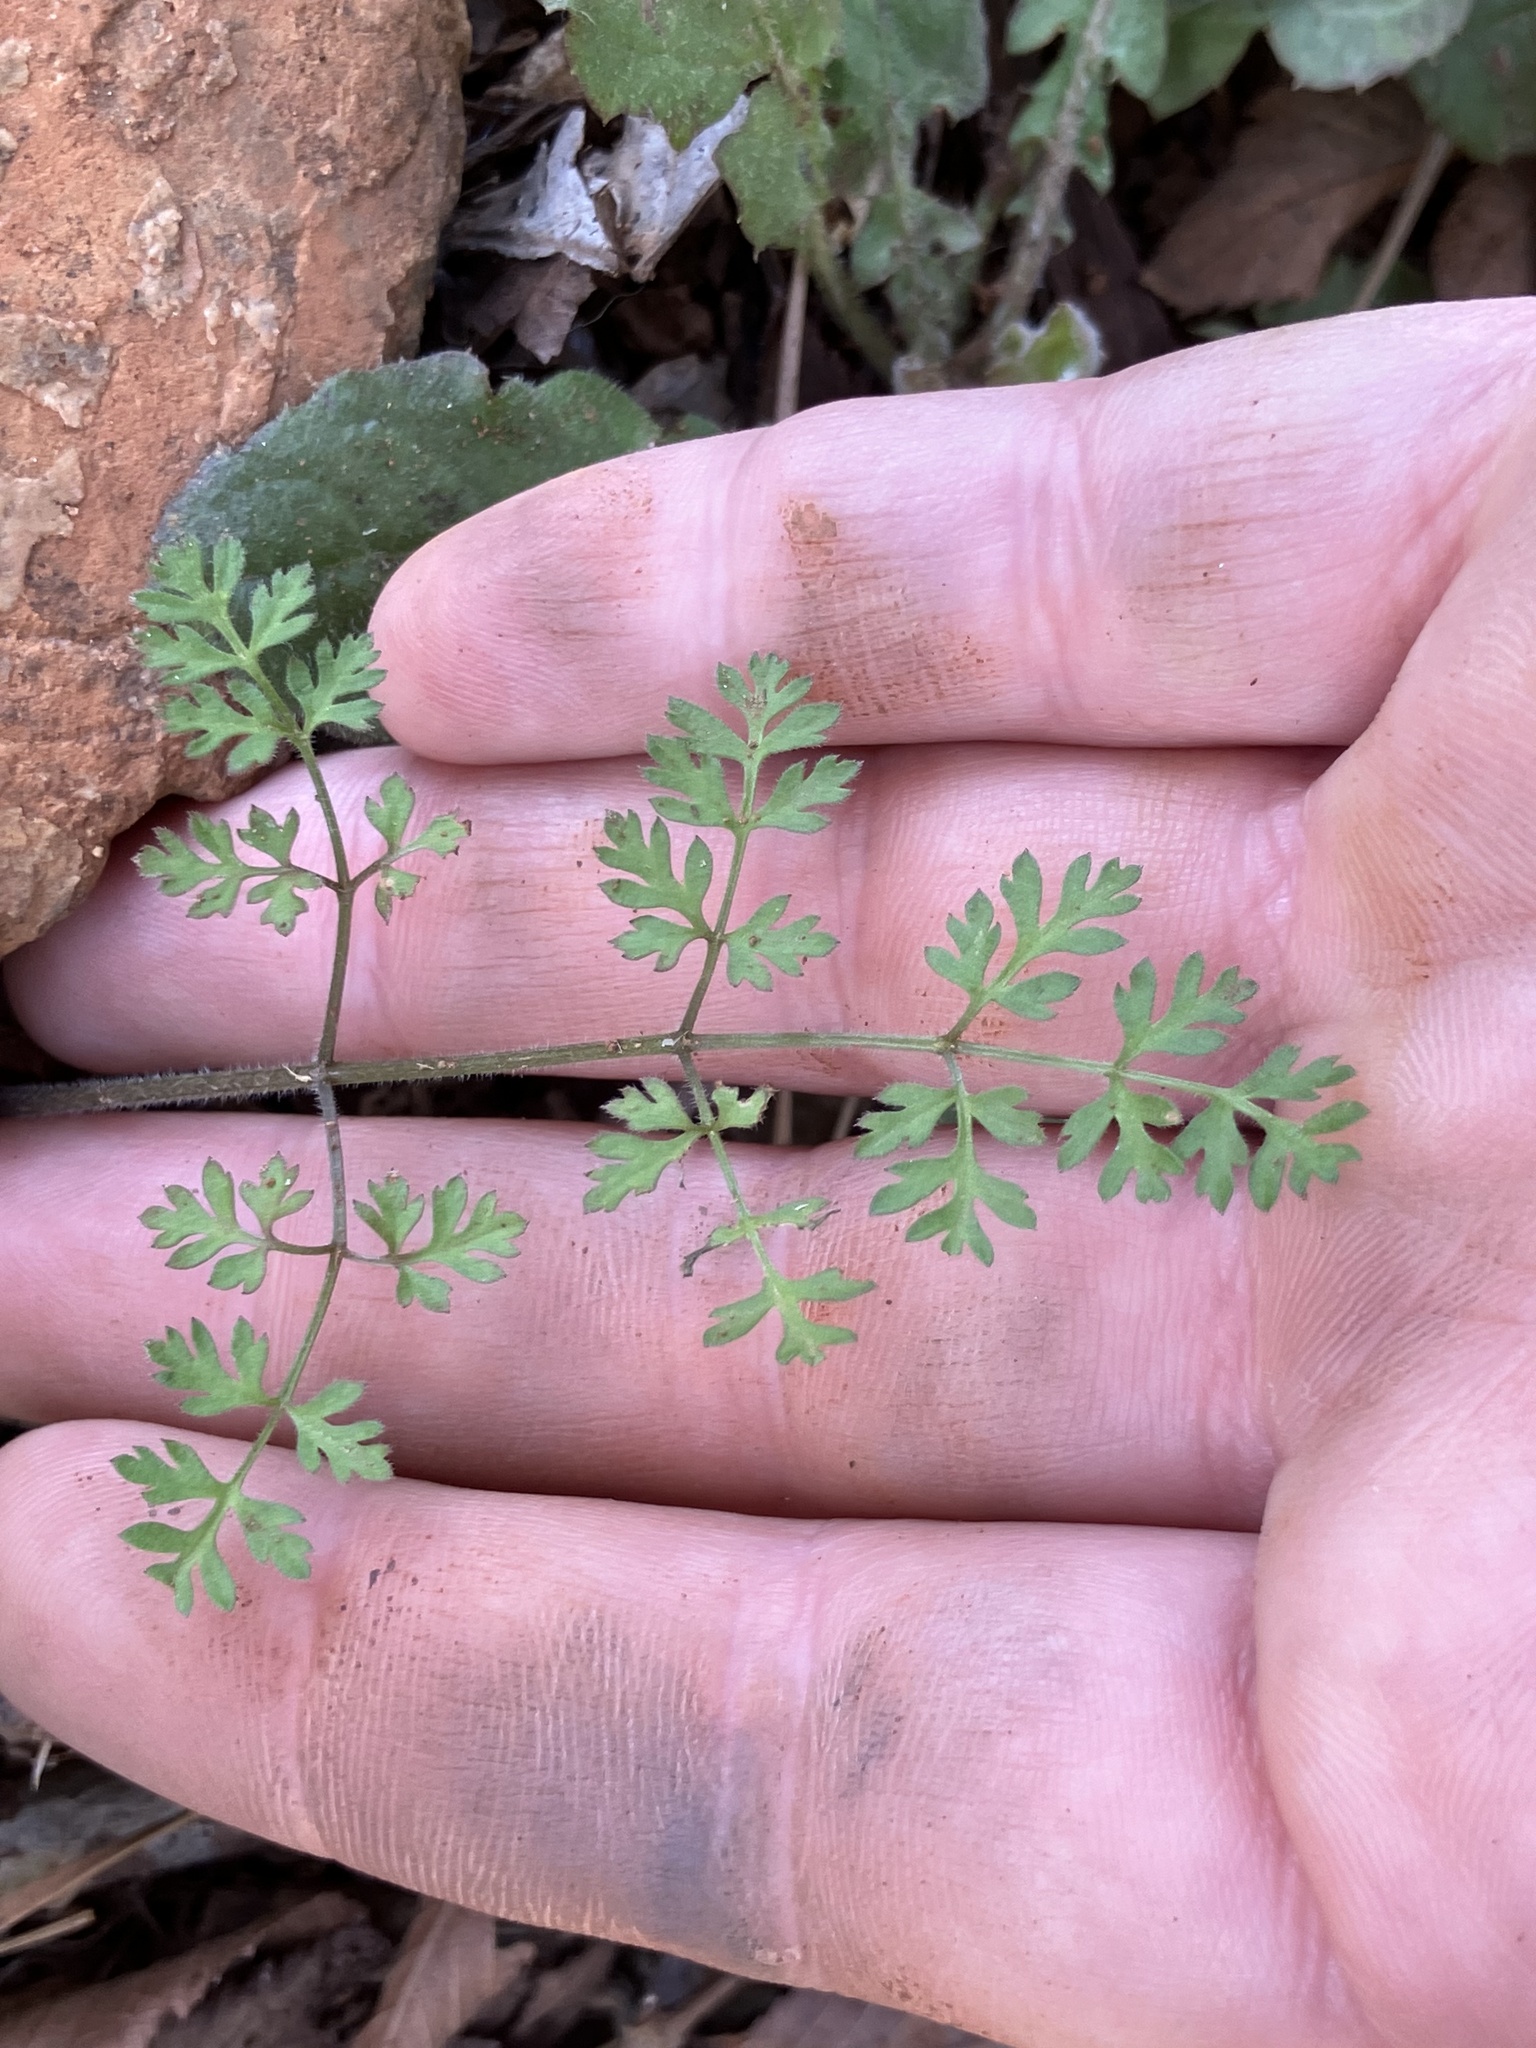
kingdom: Plantae
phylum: Tracheophyta
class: Magnoliopsida
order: Apiales
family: Apiaceae
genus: Chaerophyllum
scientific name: Chaerophyllum tainturieri
